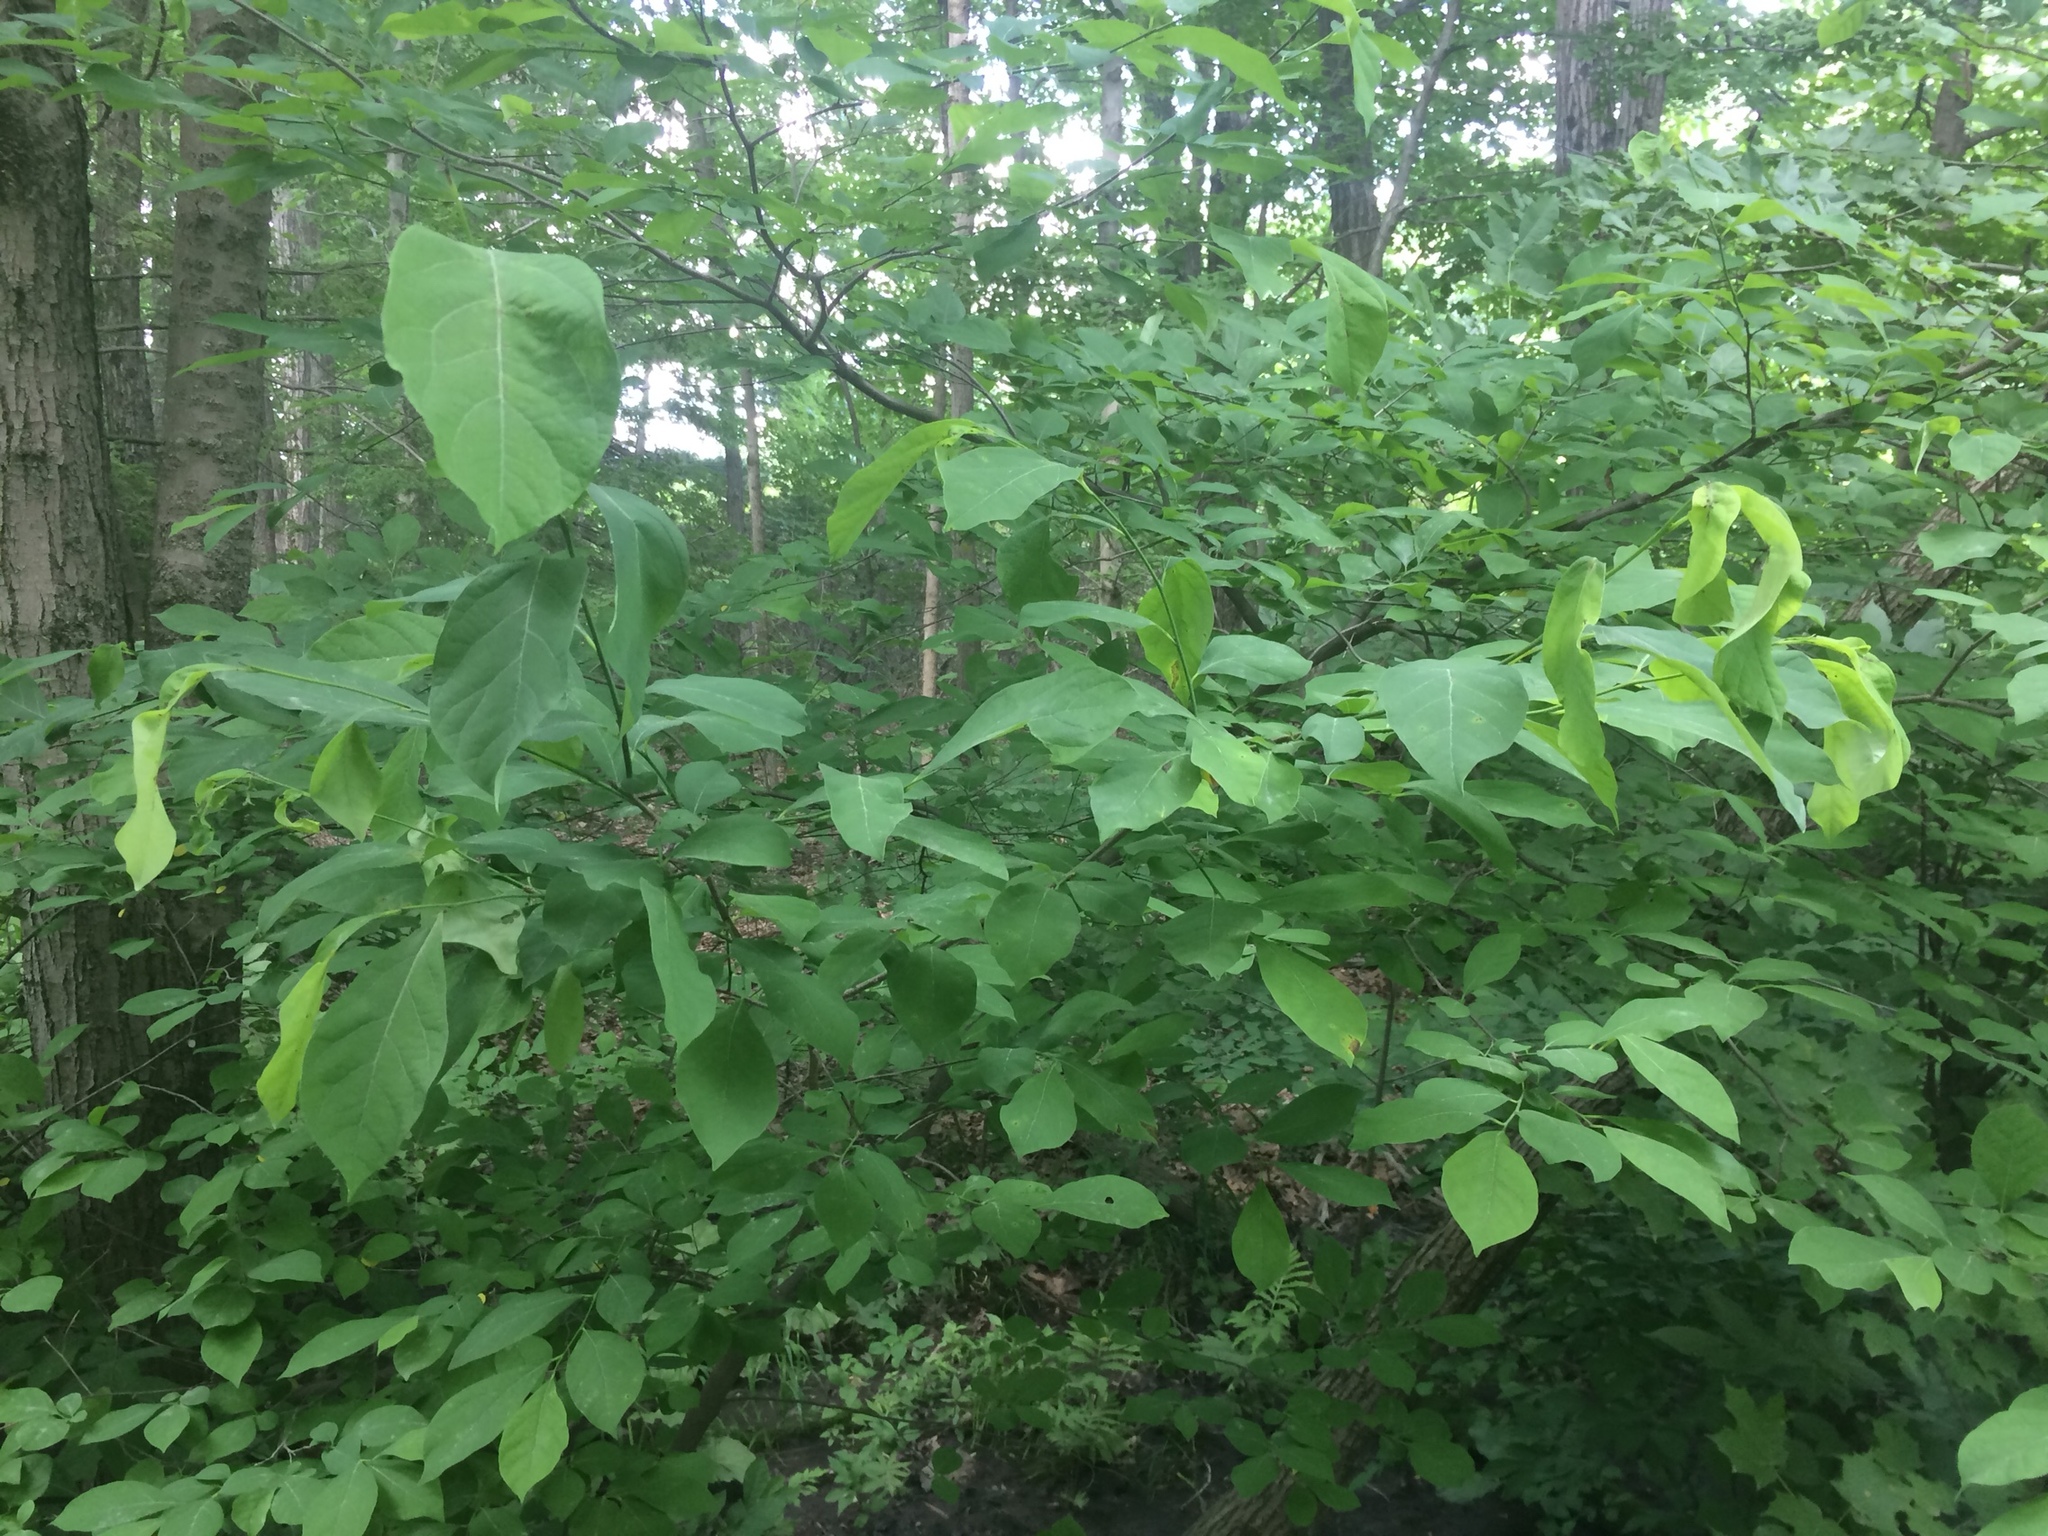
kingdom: Plantae
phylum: Tracheophyta
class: Magnoliopsida
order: Laurales
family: Lauraceae
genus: Lindera
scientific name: Lindera benzoin
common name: Spicebush
